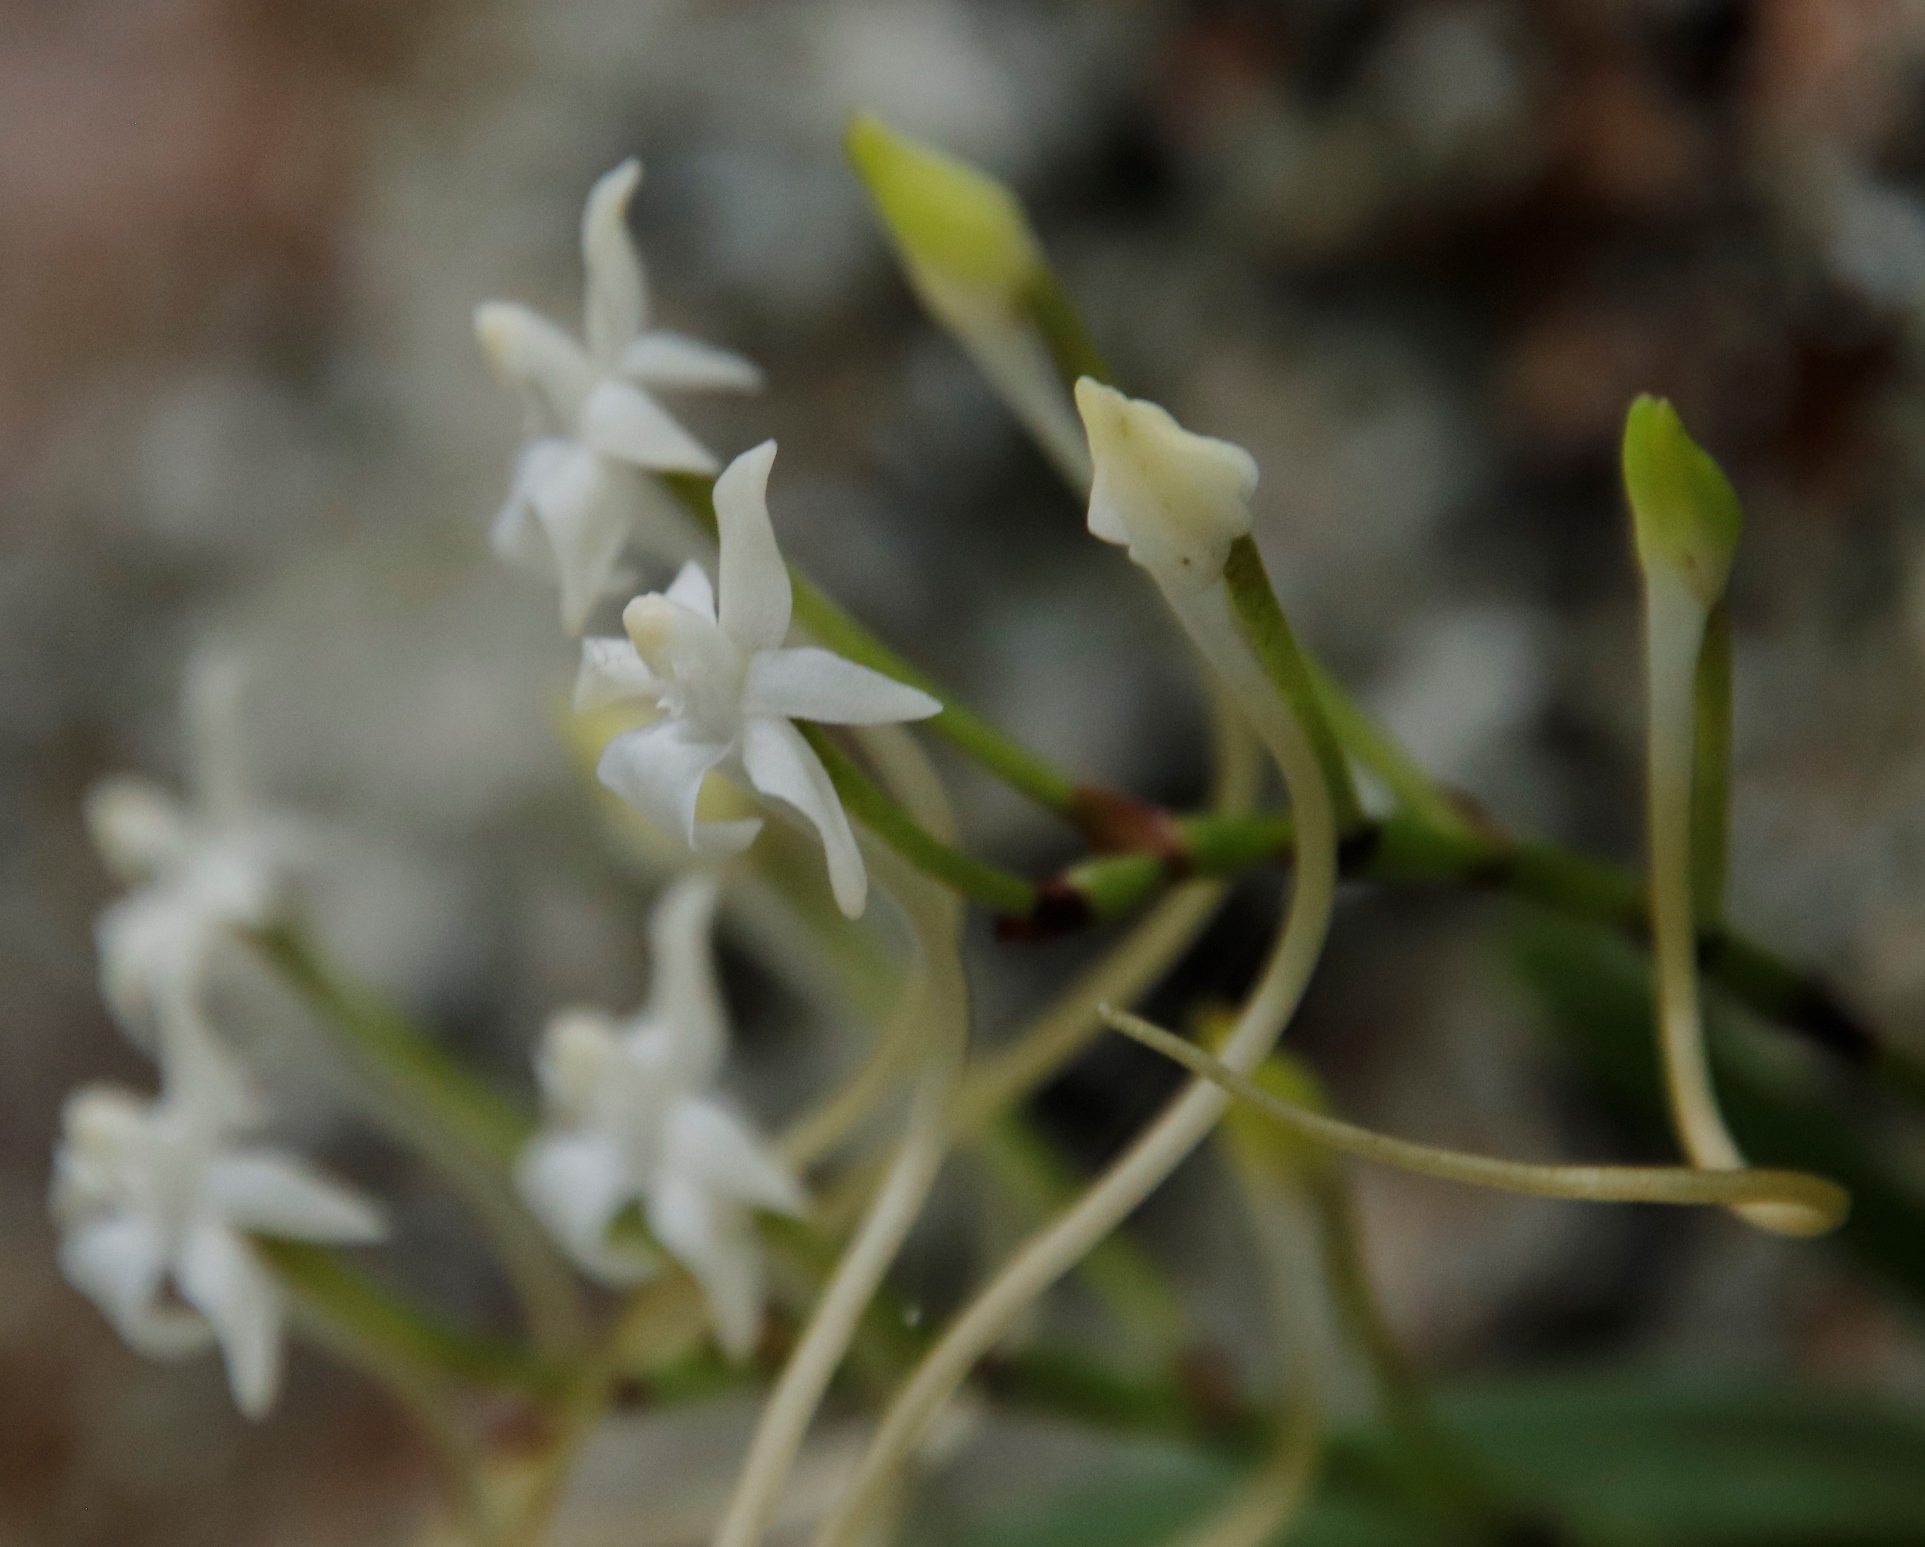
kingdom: Plantae
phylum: Tracheophyta
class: Liliopsida
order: Asparagales
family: Orchidaceae
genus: Rangaeris
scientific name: Rangaeris muscicola
